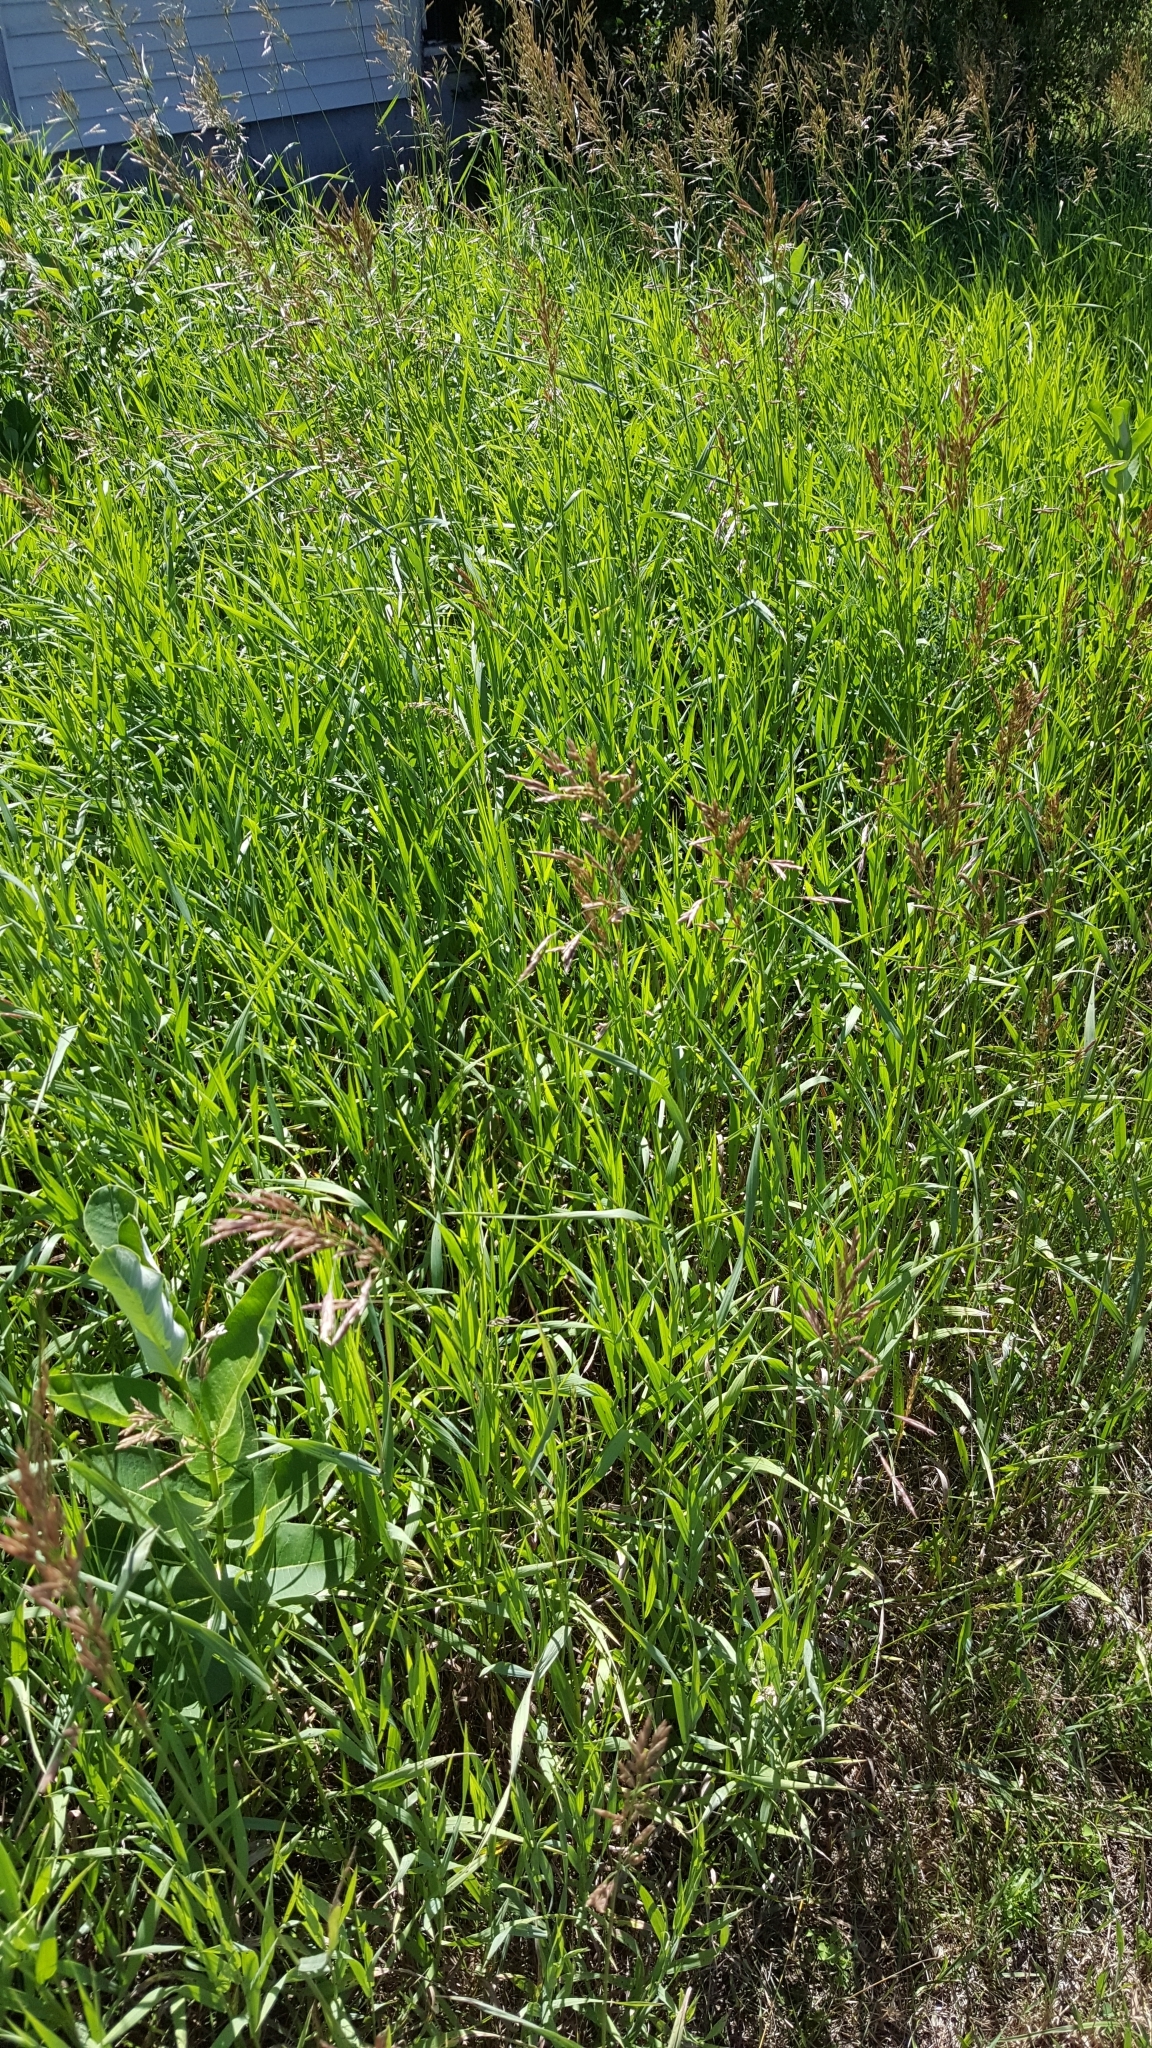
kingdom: Plantae
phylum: Tracheophyta
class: Liliopsida
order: Poales
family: Poaceae
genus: Bromus
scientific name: Bromus inermis
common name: Smooth brome
